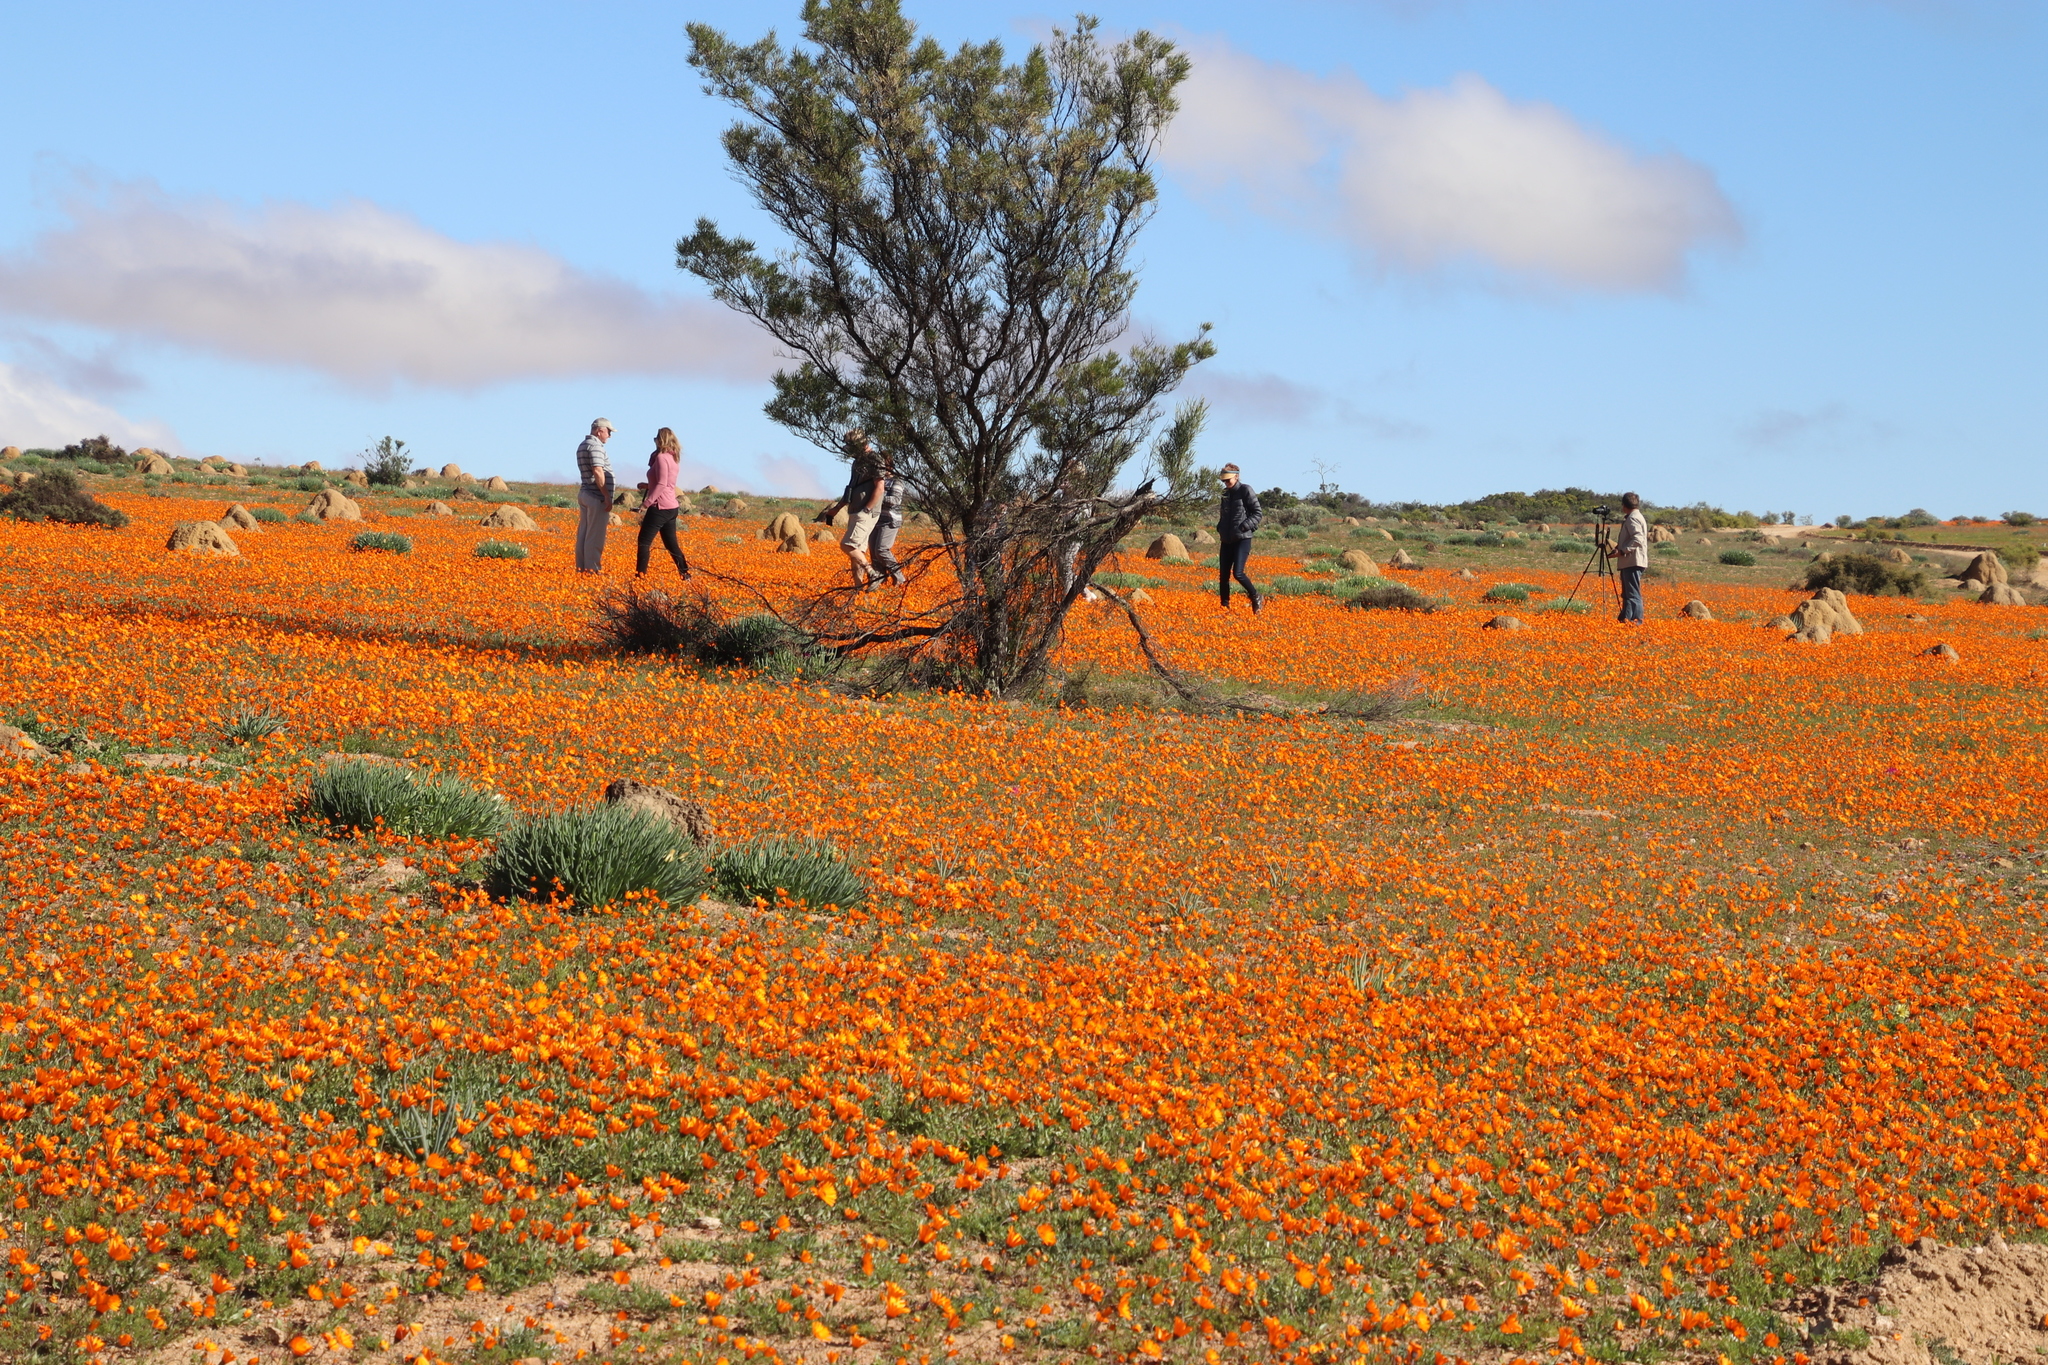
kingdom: Plantae
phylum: Tracheophyta
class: Magnoliopsida
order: Asterales
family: Asteraceae
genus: Dimorphotheca
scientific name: Dimorphotheca sinuata
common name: Glandular cape marigold
